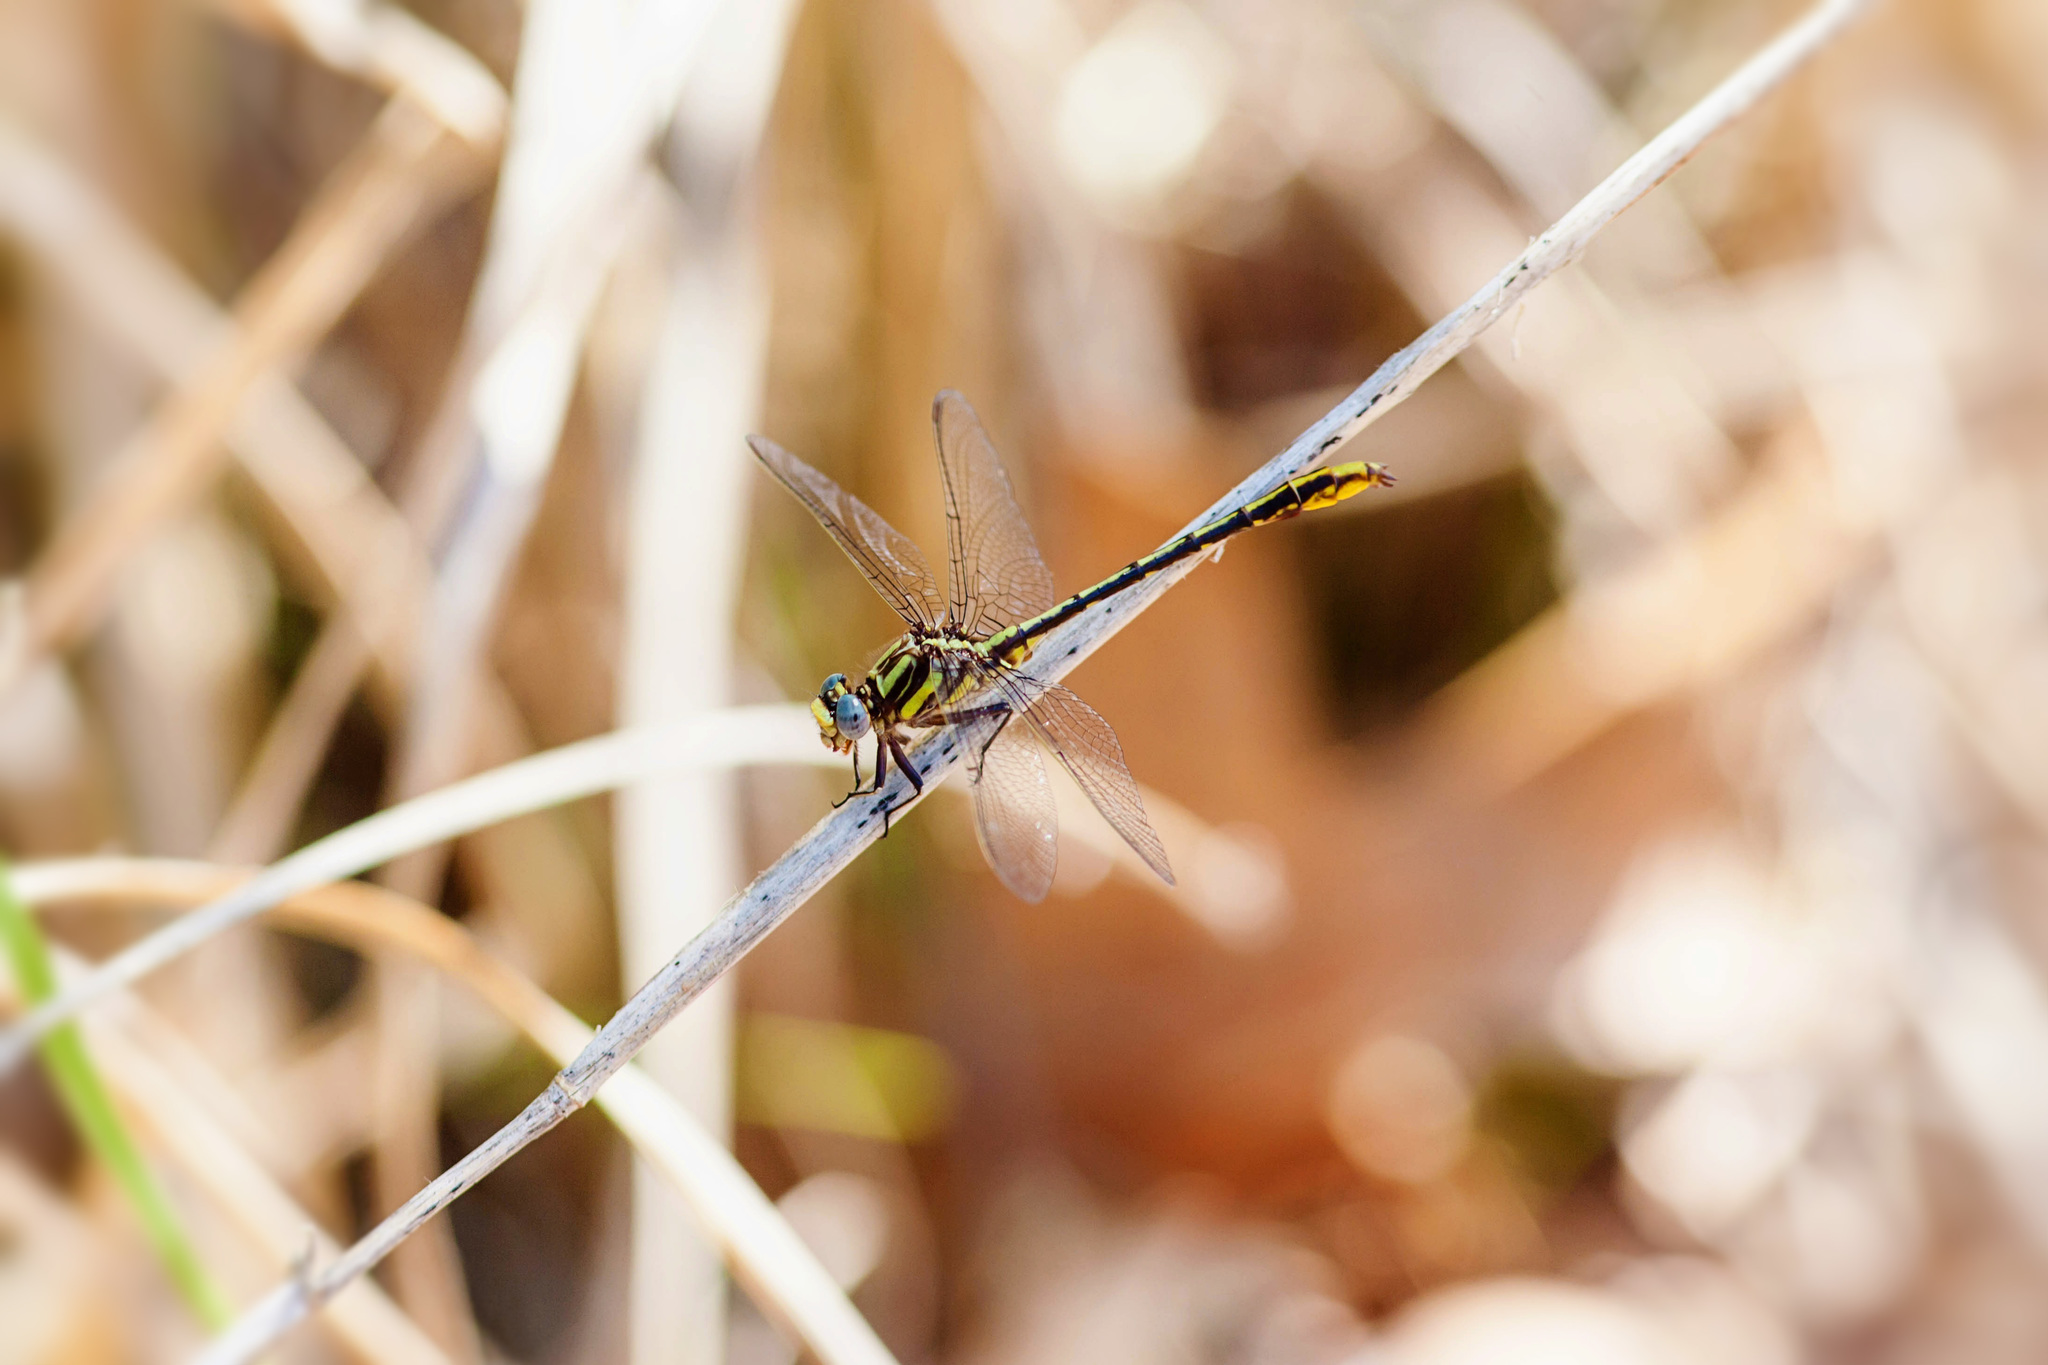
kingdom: Animalia
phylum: Arthropoda
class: Insecta
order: Odonata
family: Gomphidae
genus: Phanogomphus
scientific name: Phanogomphus exilis
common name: Lancet clubtail
